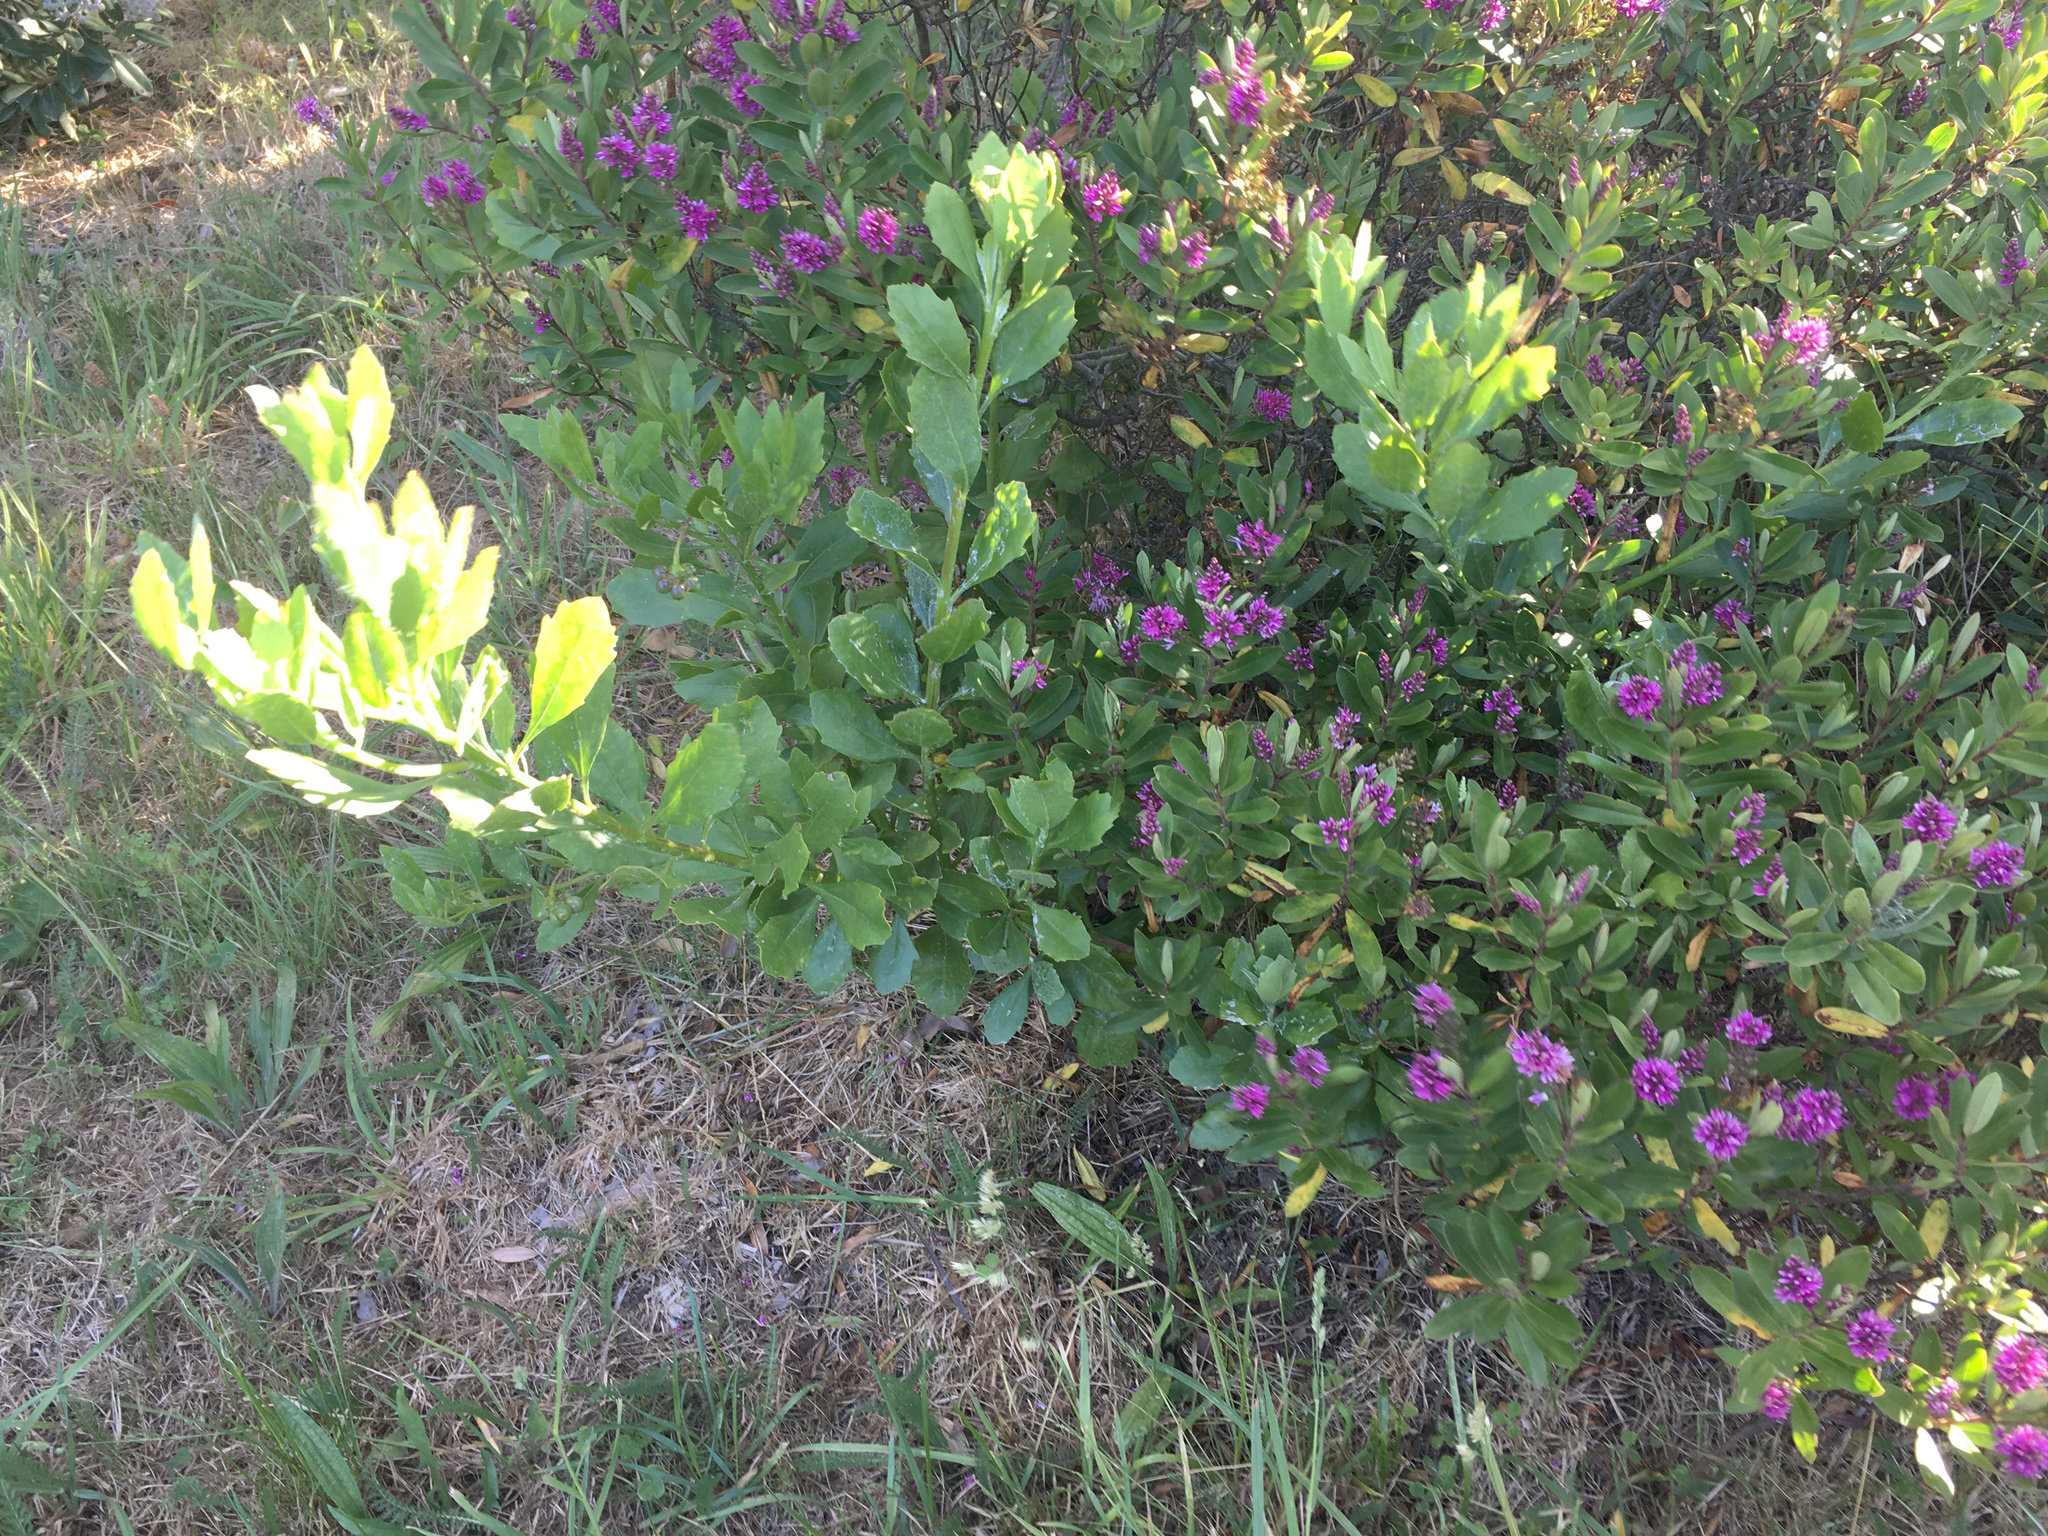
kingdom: Plantae
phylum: Tracheophyta
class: Magnoliopsida
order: Asterales
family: Asteraceae
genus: Osteospermum
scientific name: Osteospermum moniliferum
